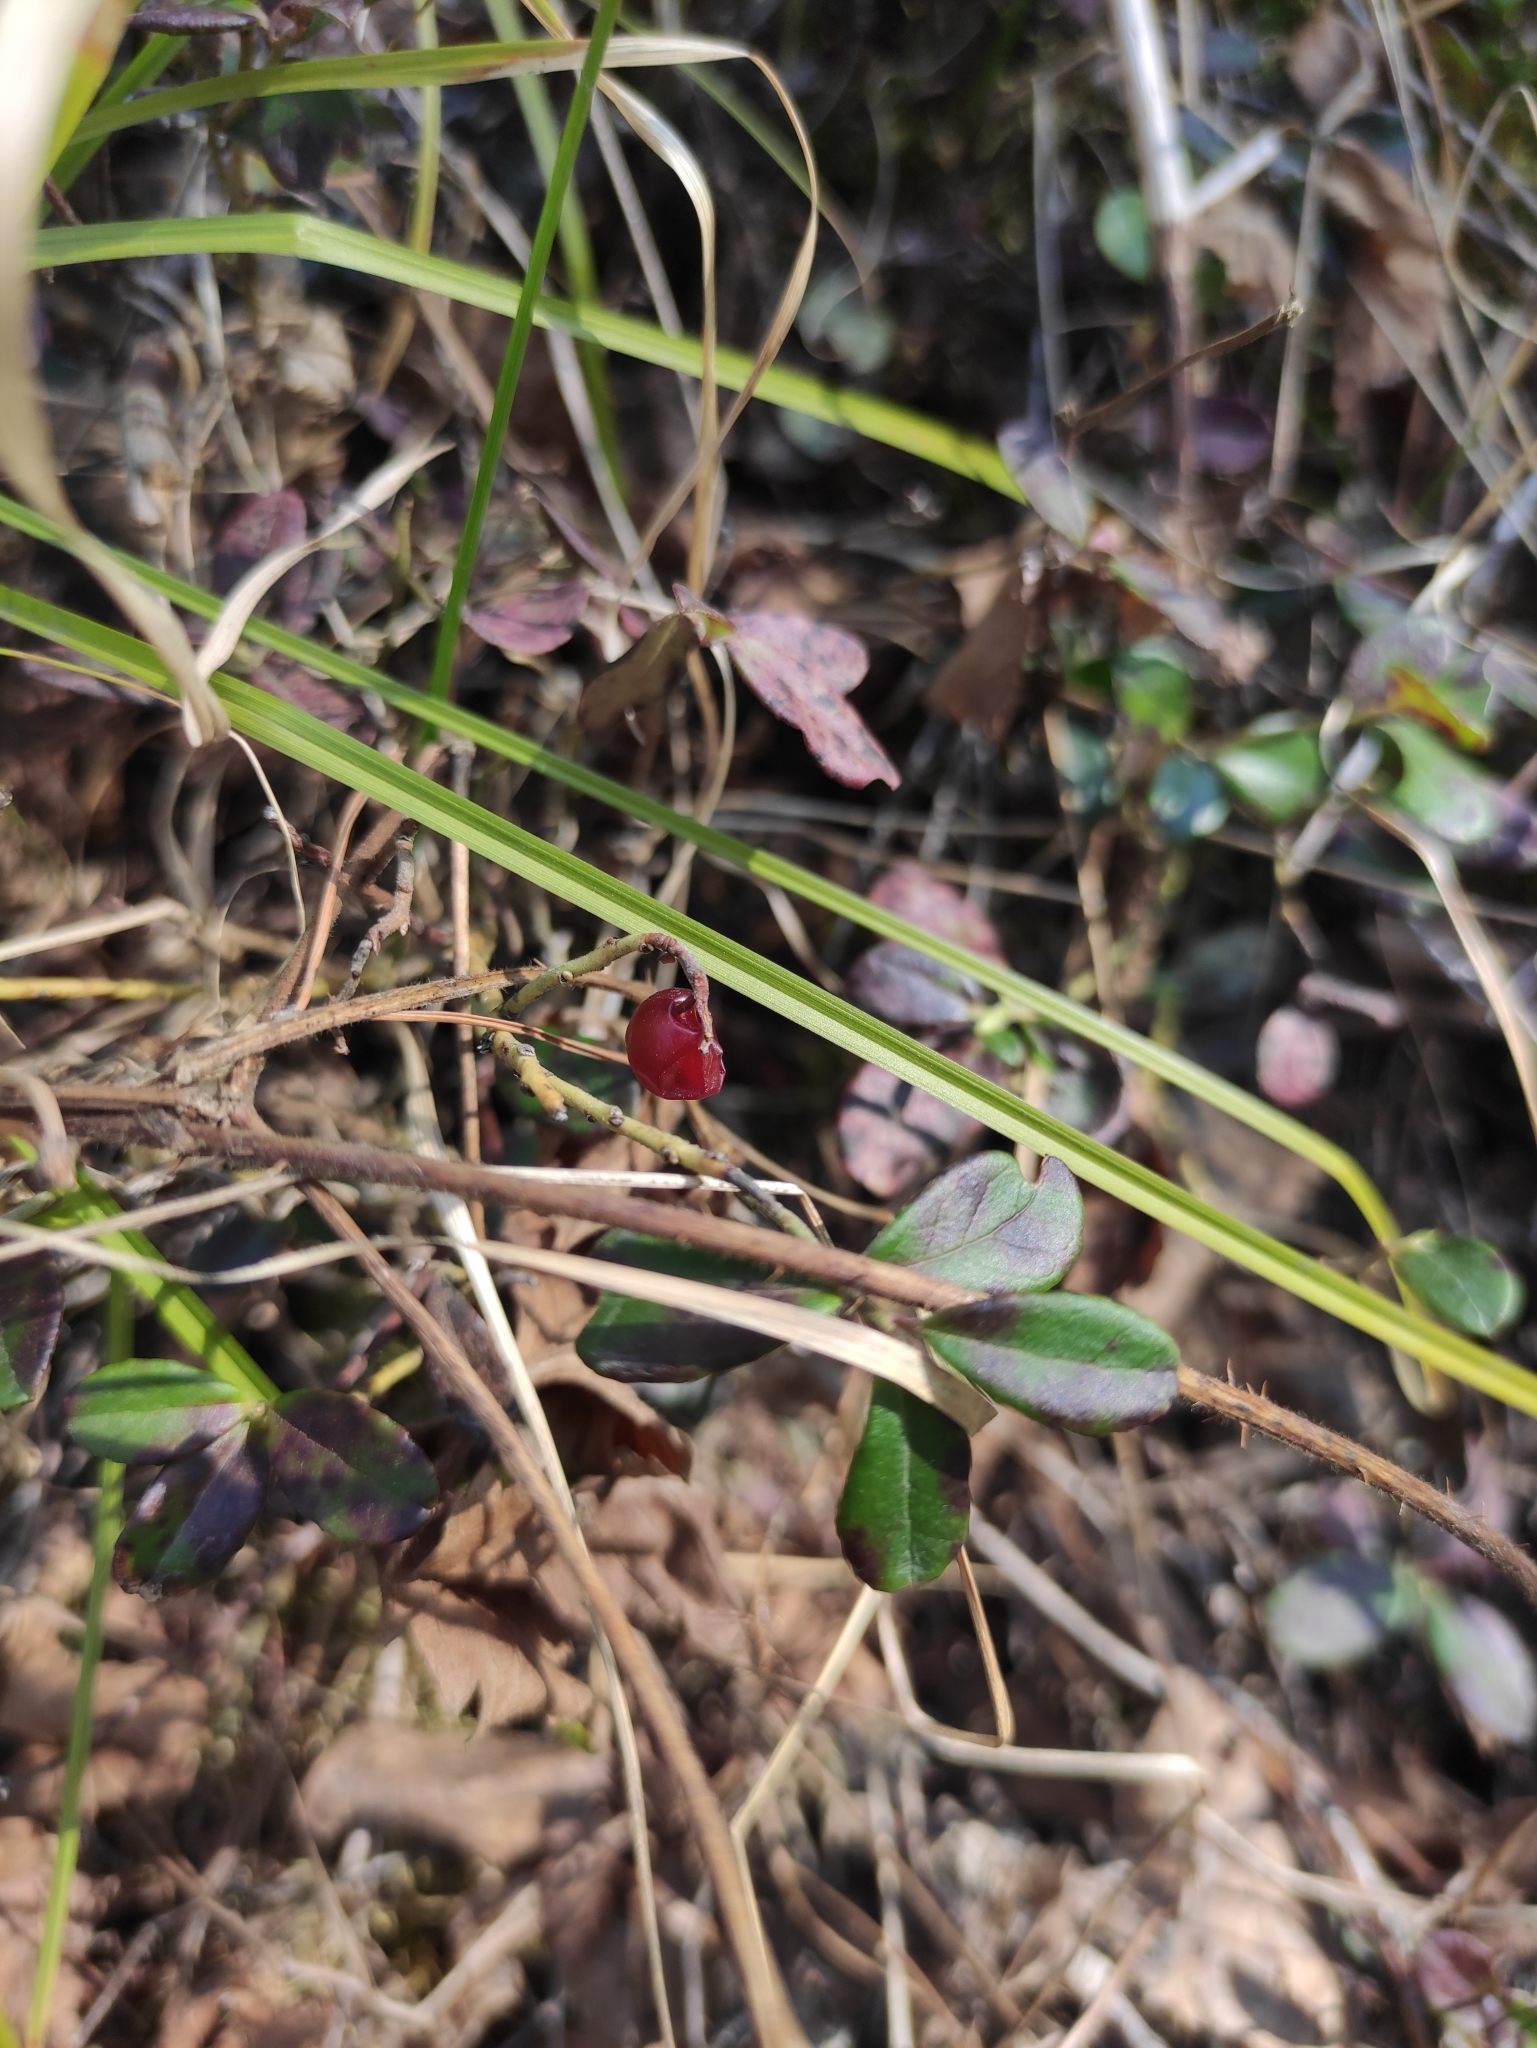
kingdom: Plantae
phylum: Tracheophyta
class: Magnoliopsida
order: Ericales
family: Ericaceae
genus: Vaccinium
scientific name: Vaccinium vitis-idaea
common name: Cowberry
